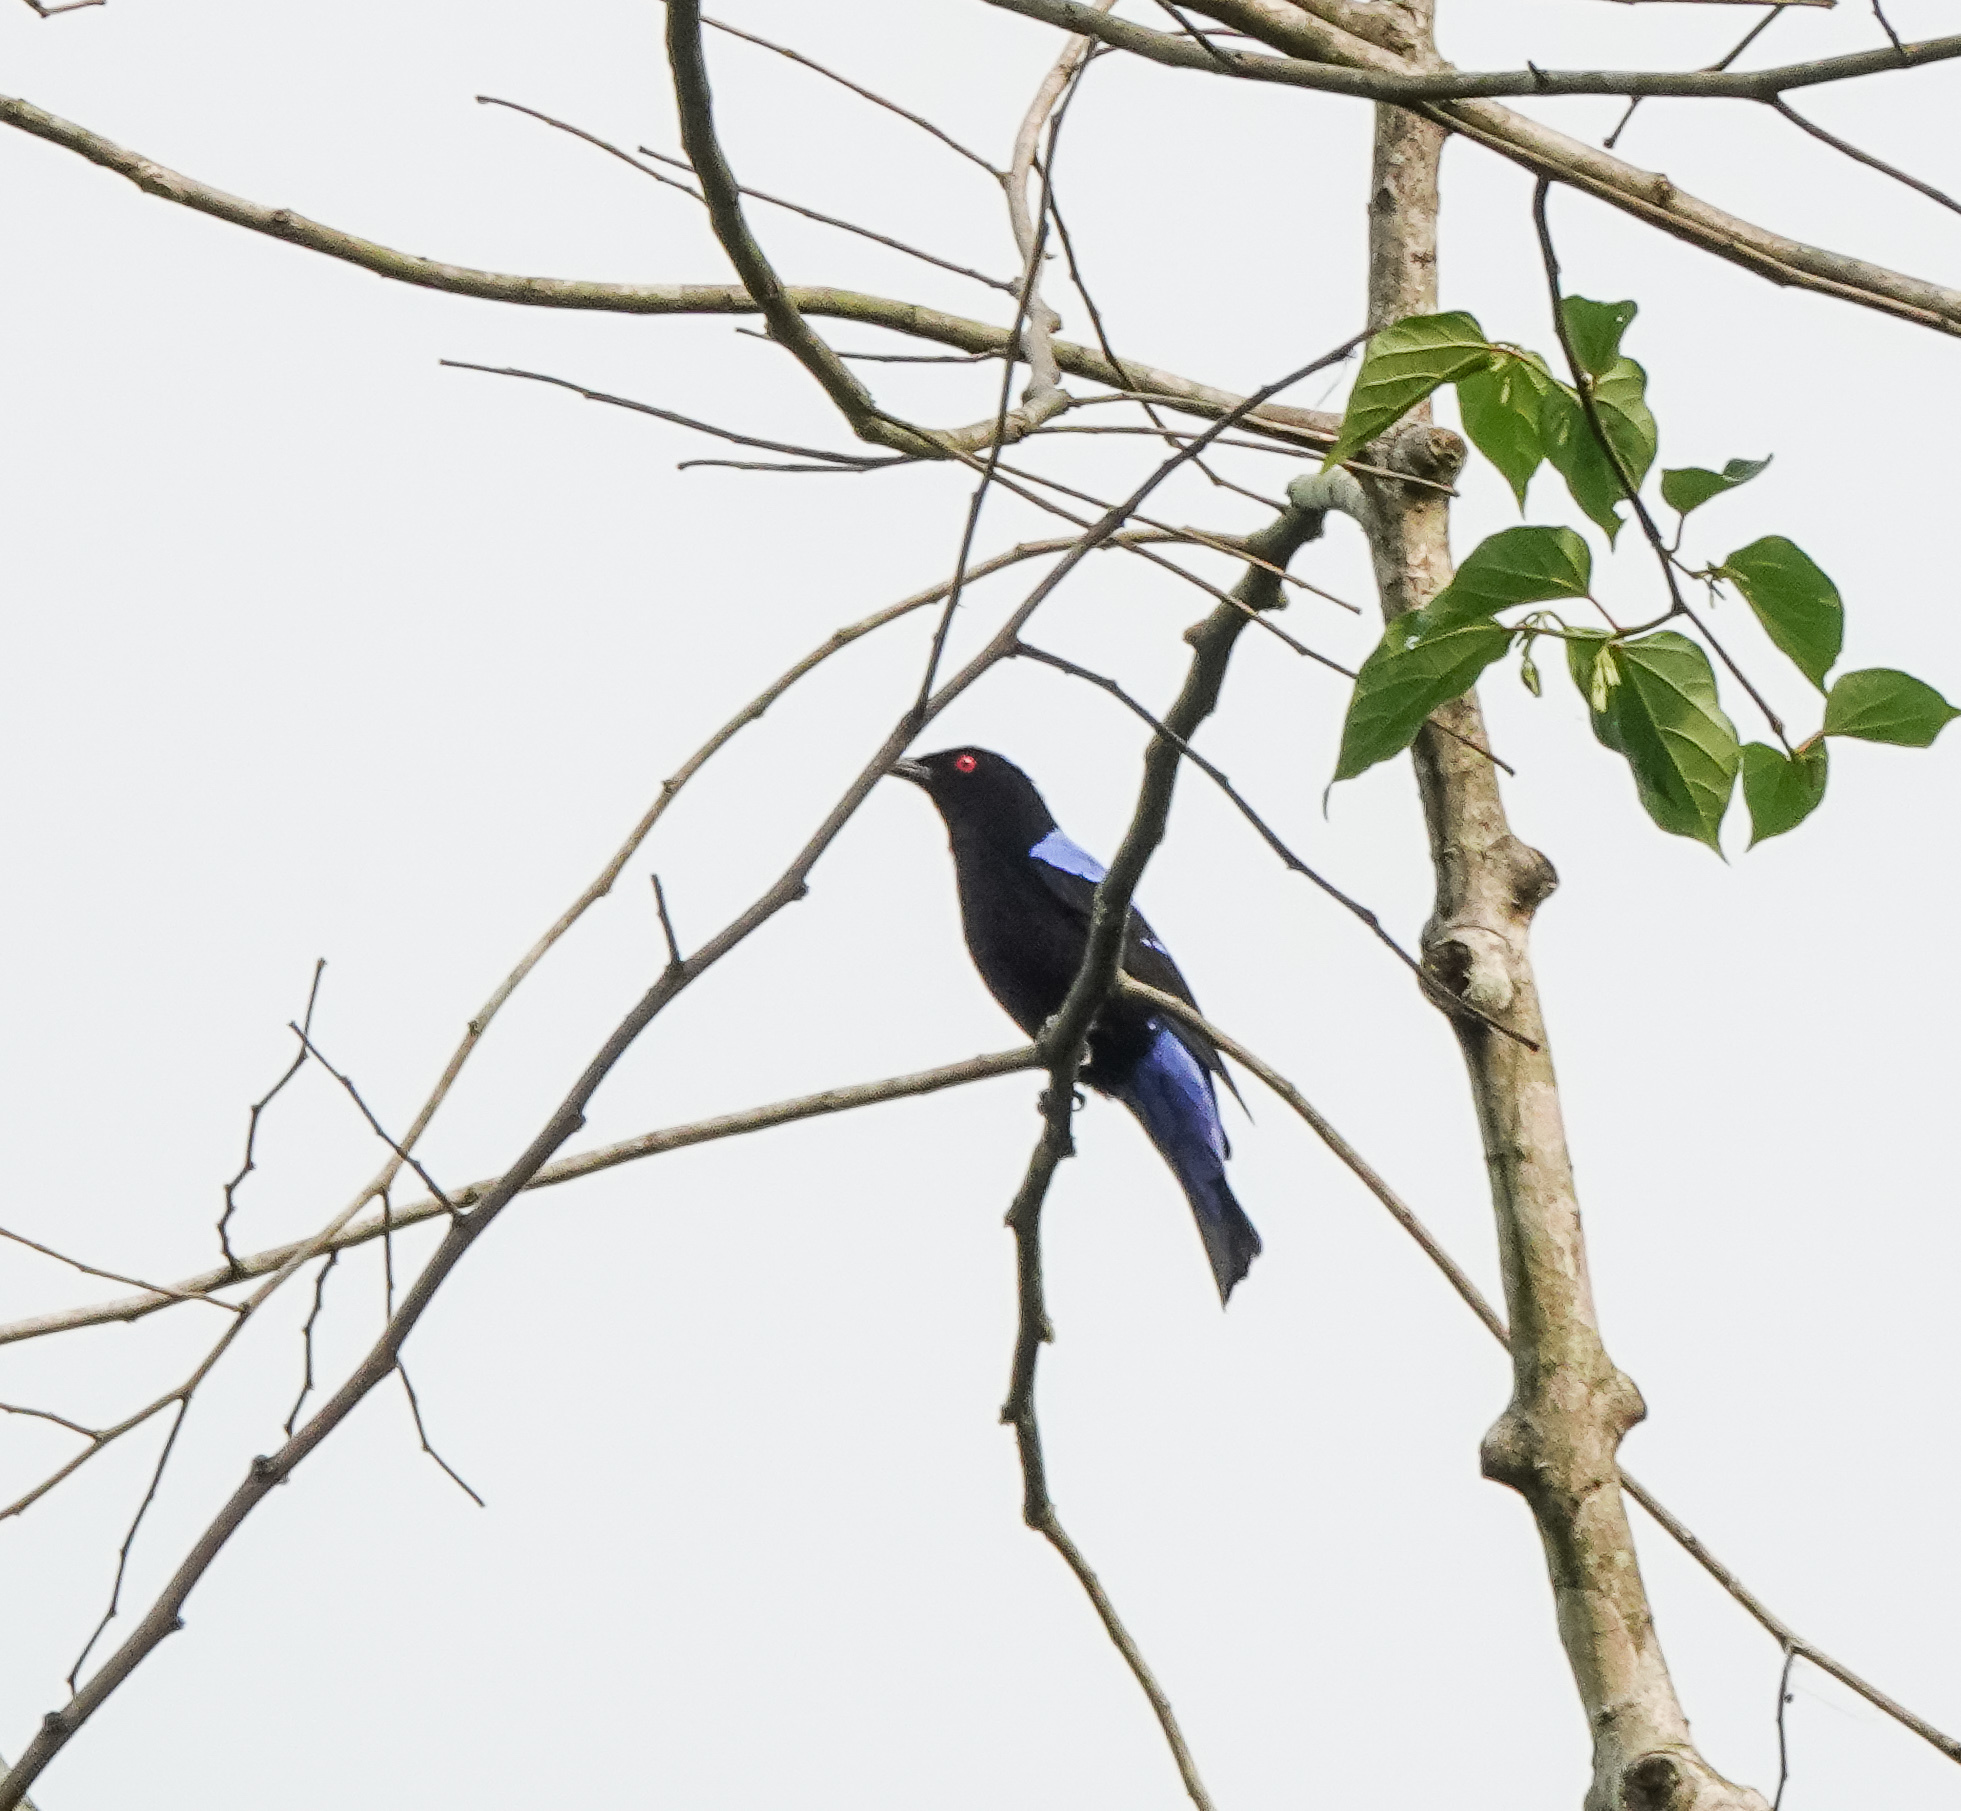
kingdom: Animalia
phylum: Chordata
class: Aves
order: Passeriformes
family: Irenidae
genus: Irena
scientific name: Irena puella
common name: Asian fairy-bluebird
